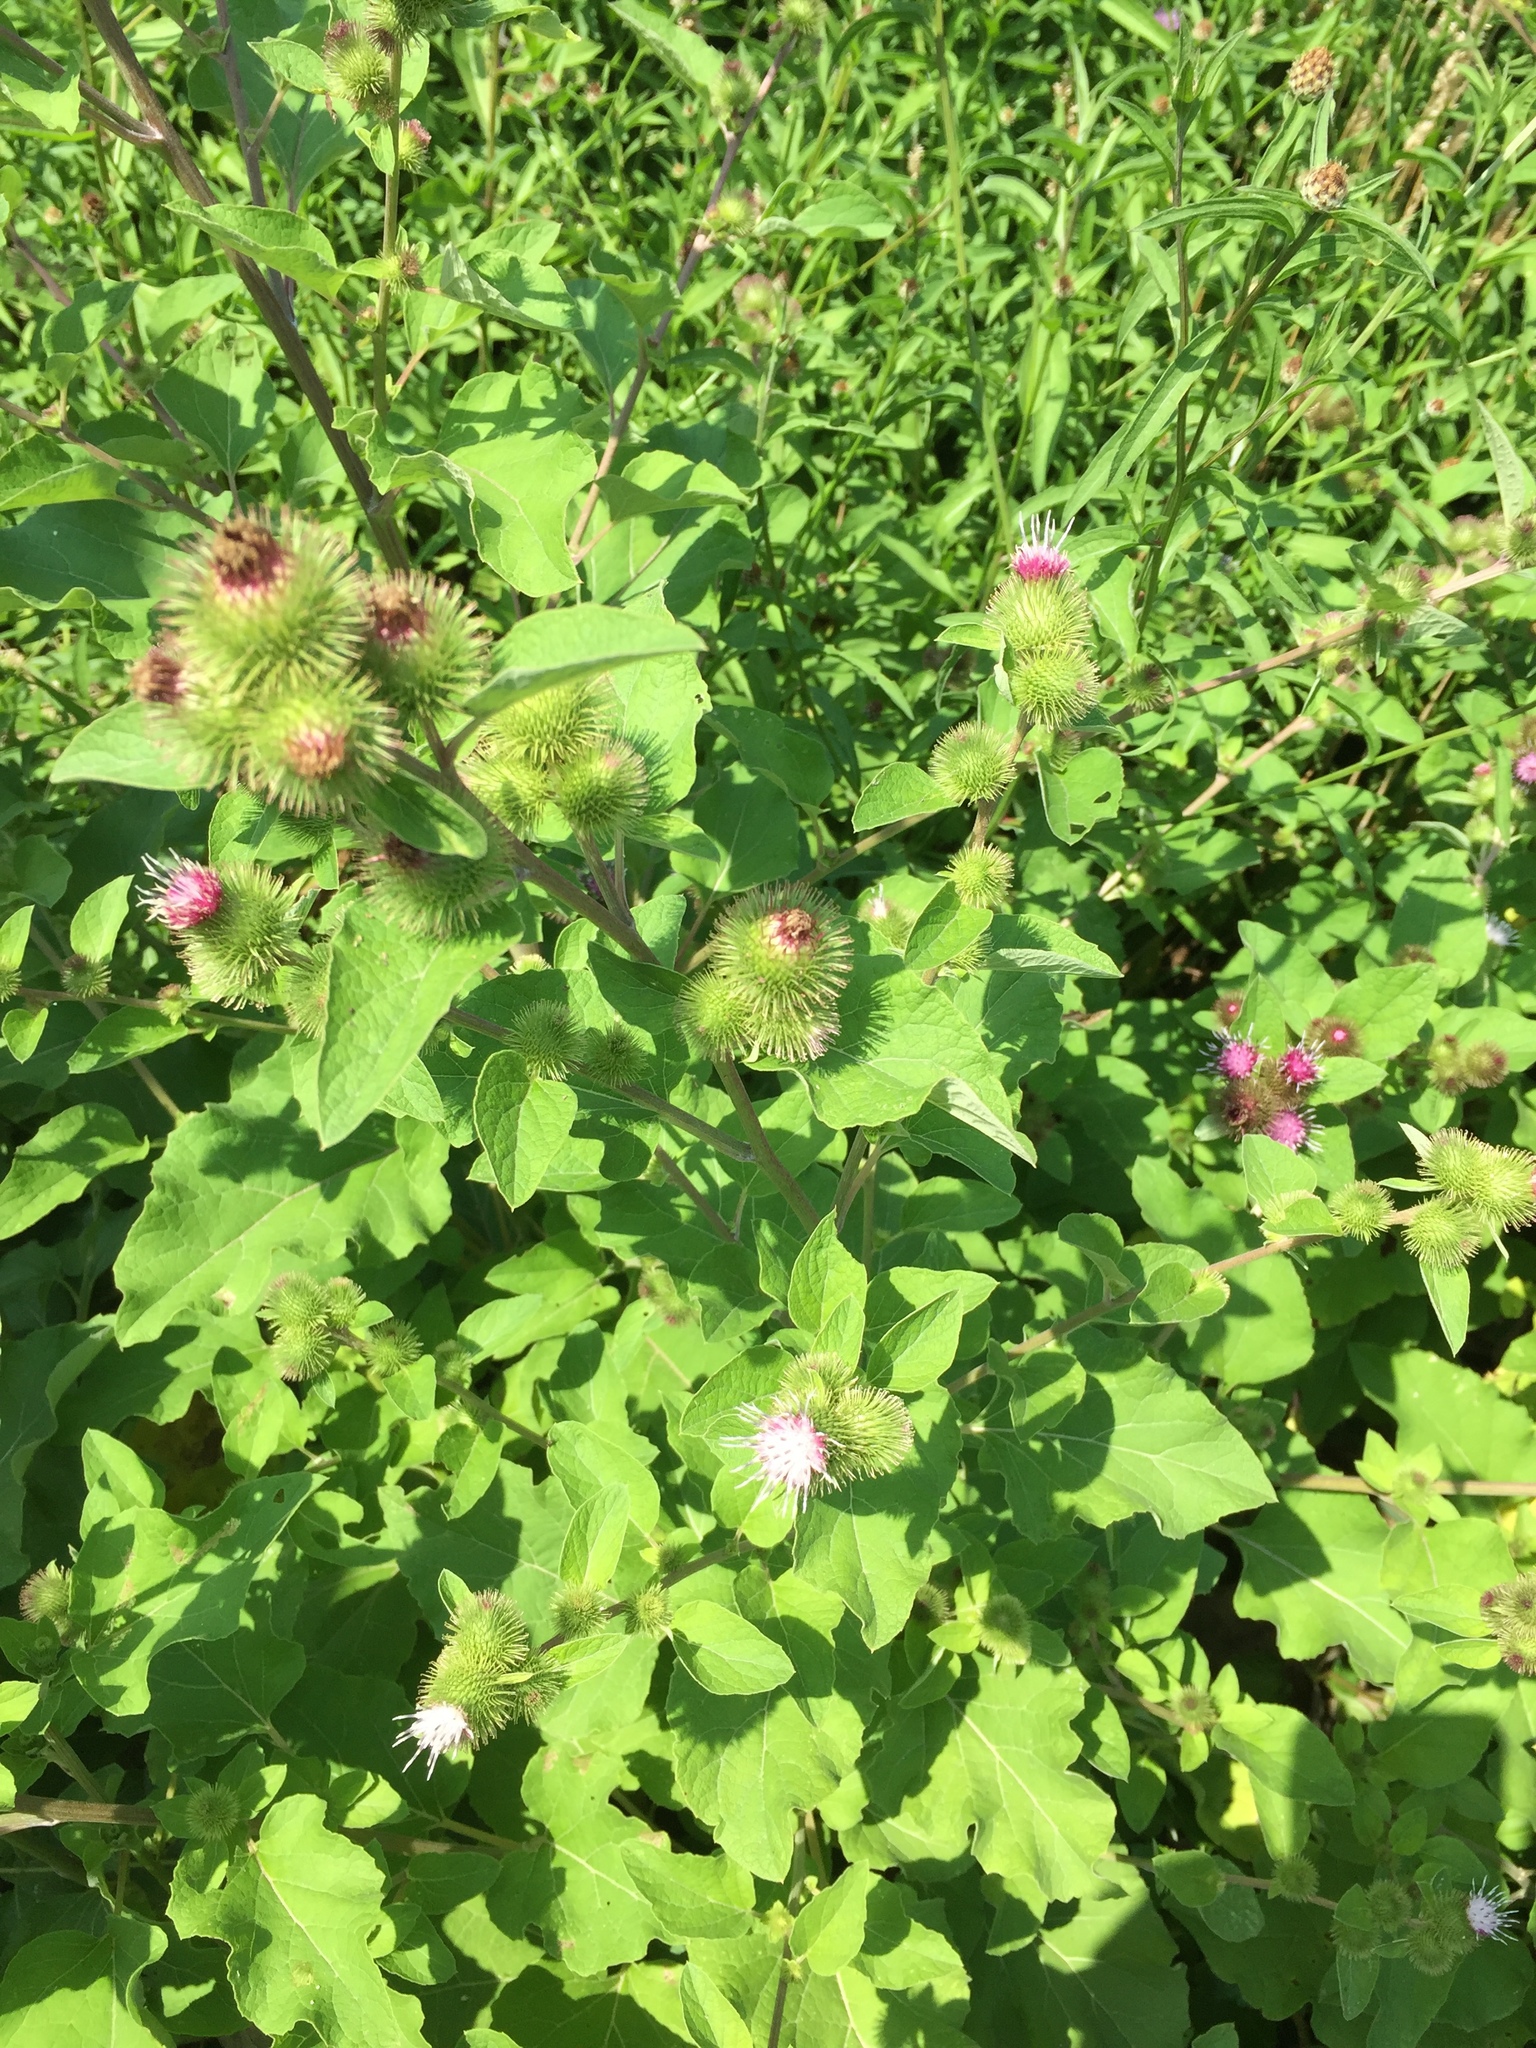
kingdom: Plantae
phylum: Tracheophyta
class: Magnoliopsida
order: Asterales
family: Asteraceae
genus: Arctium
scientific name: Arctium lappa
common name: Greater burdock
